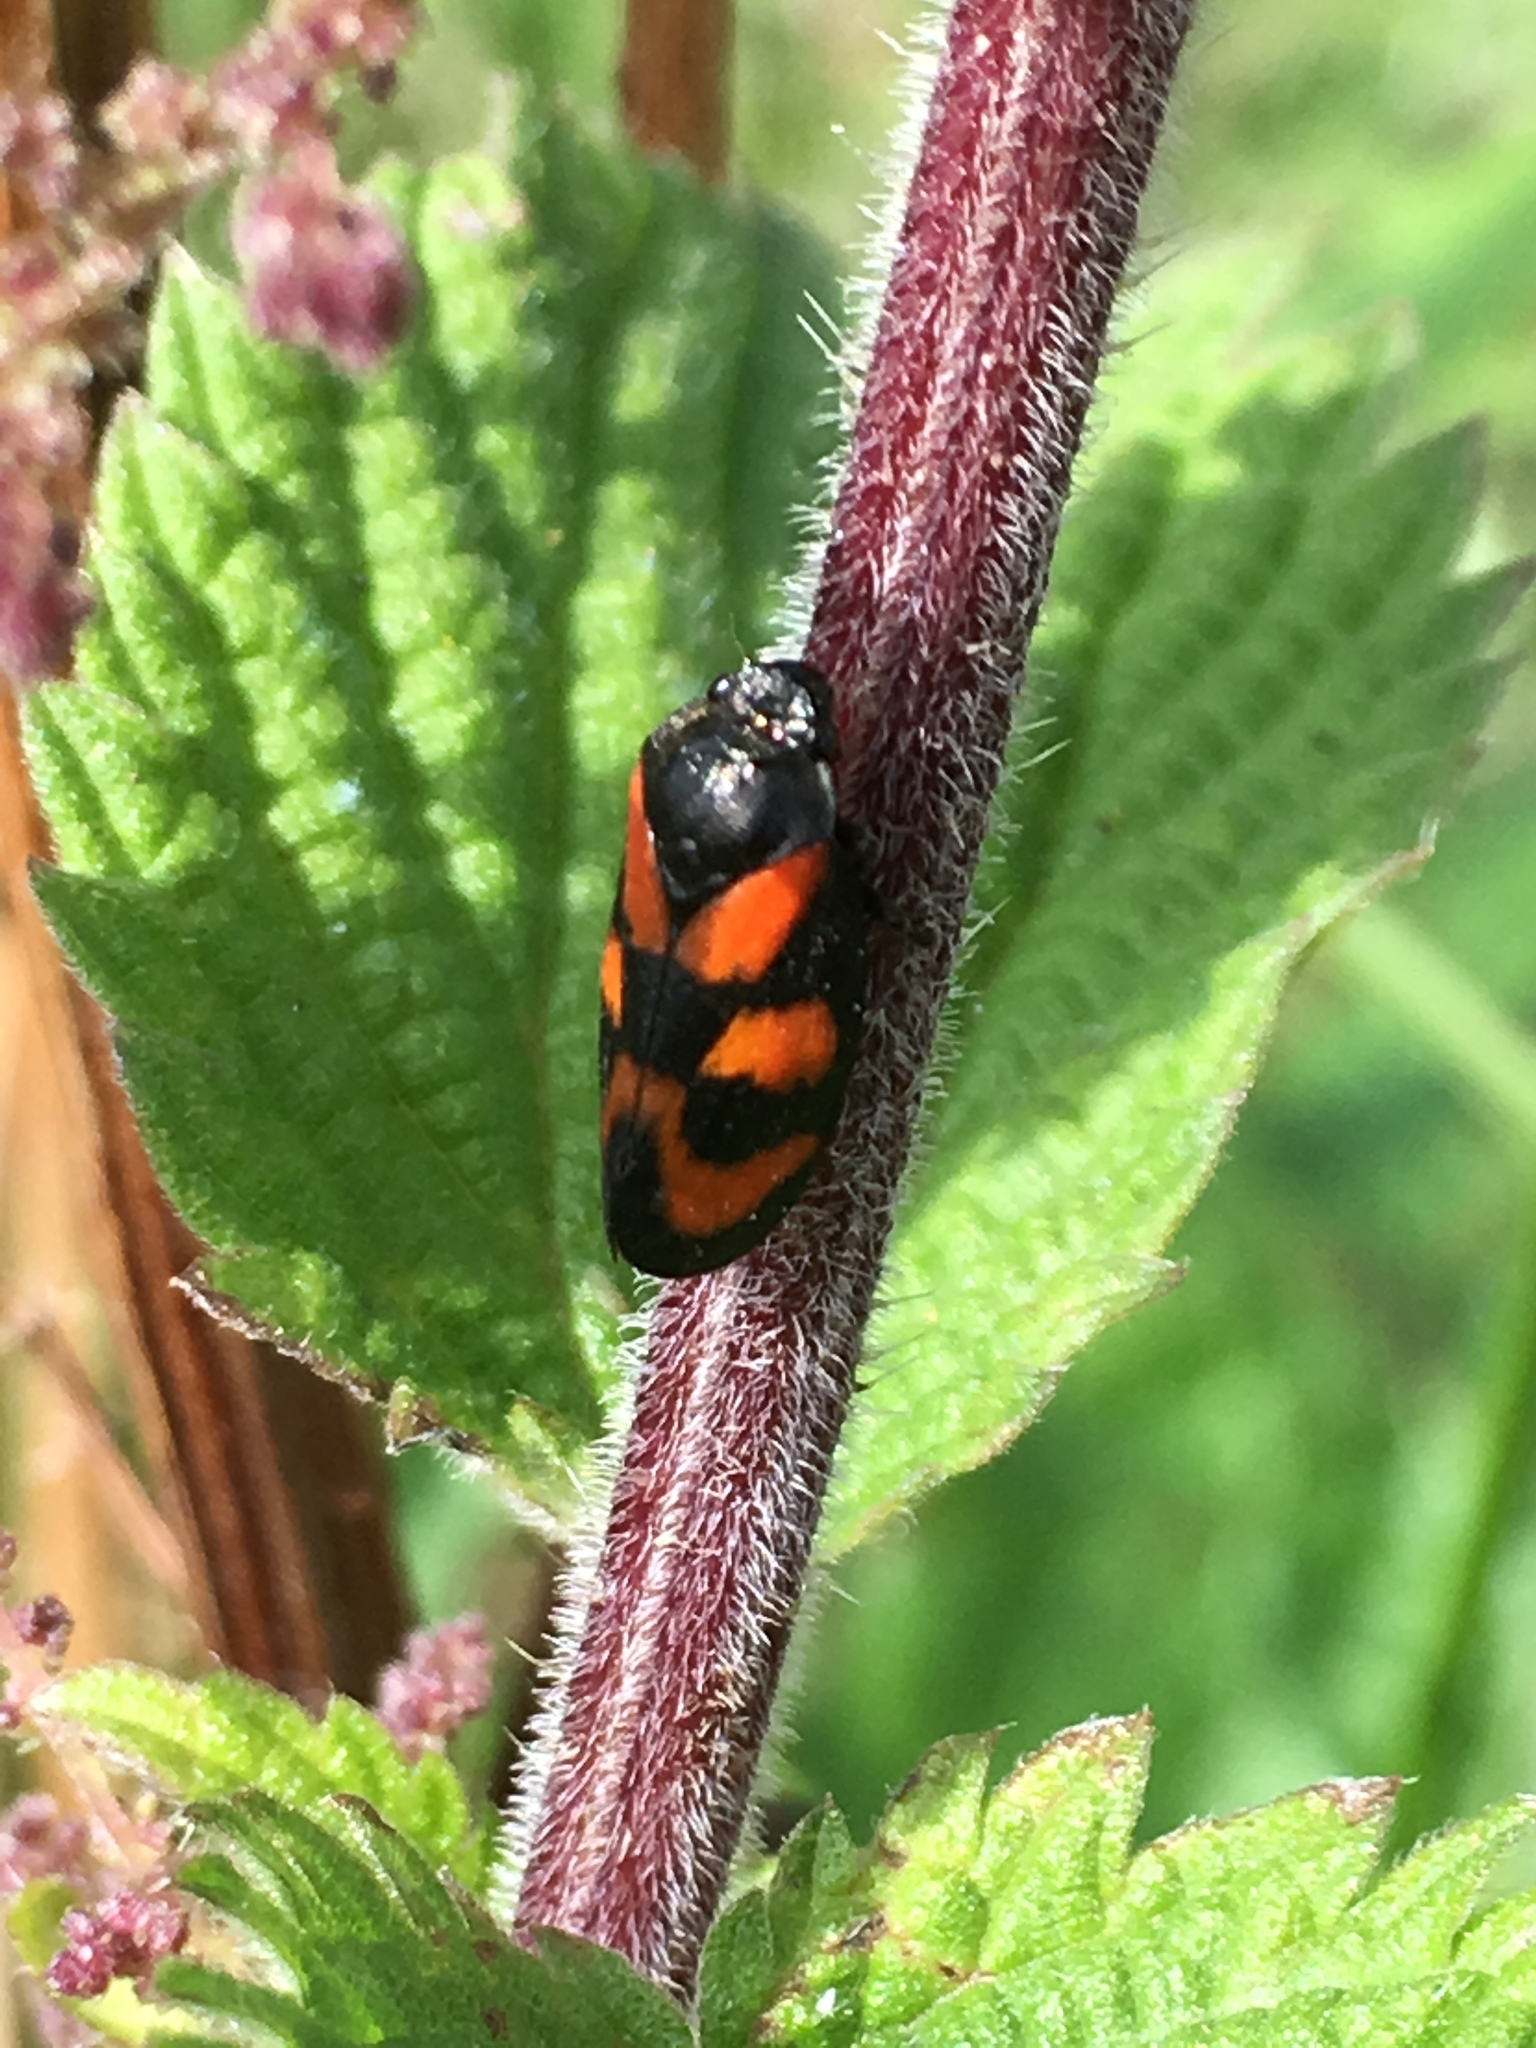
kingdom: Animalia
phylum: Arthropoda
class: Insecta
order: Hemiptera
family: Cercopidae
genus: Cercopis
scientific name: Cercopis vulnerata
